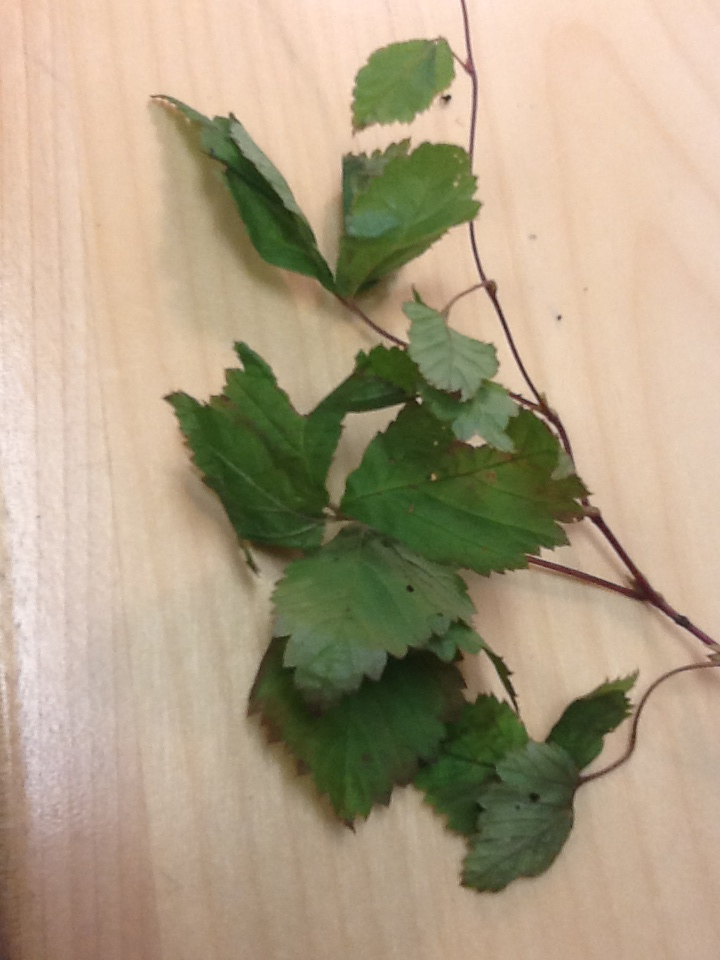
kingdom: Plantae
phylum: Tracheophyta
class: Magnoliopsida
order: Rosales
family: Rosaceae
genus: Rubus
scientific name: Rubus pubescens
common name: Dwarf raspberry
